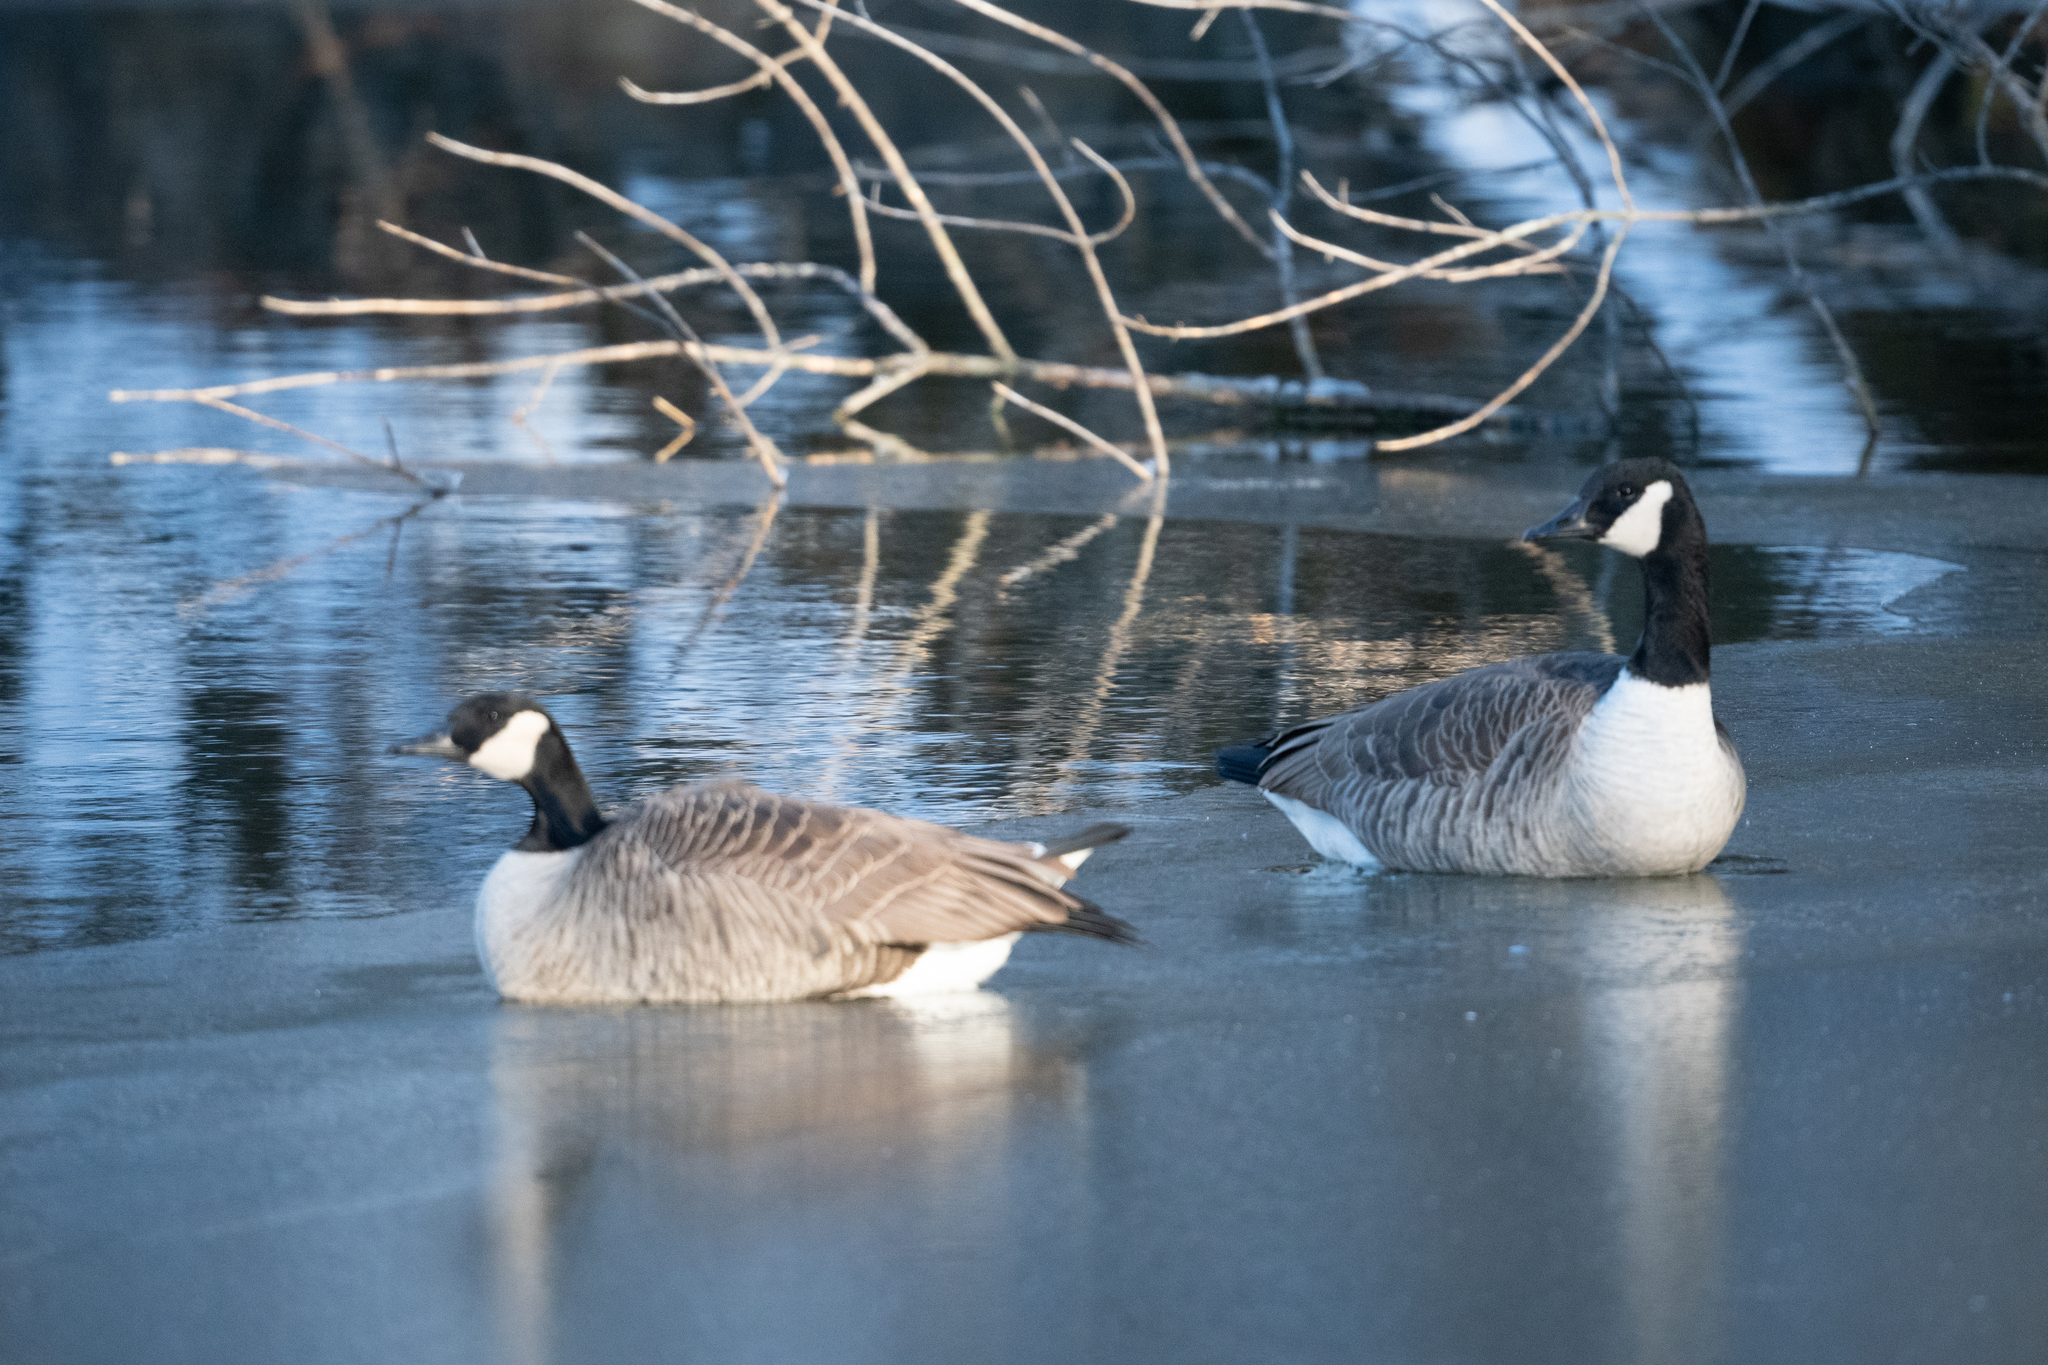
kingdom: Animalia
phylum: Chordata
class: Aves
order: Anseriformes
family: Anatidae
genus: Branta
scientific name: Branta canadensis
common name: Canada goose
